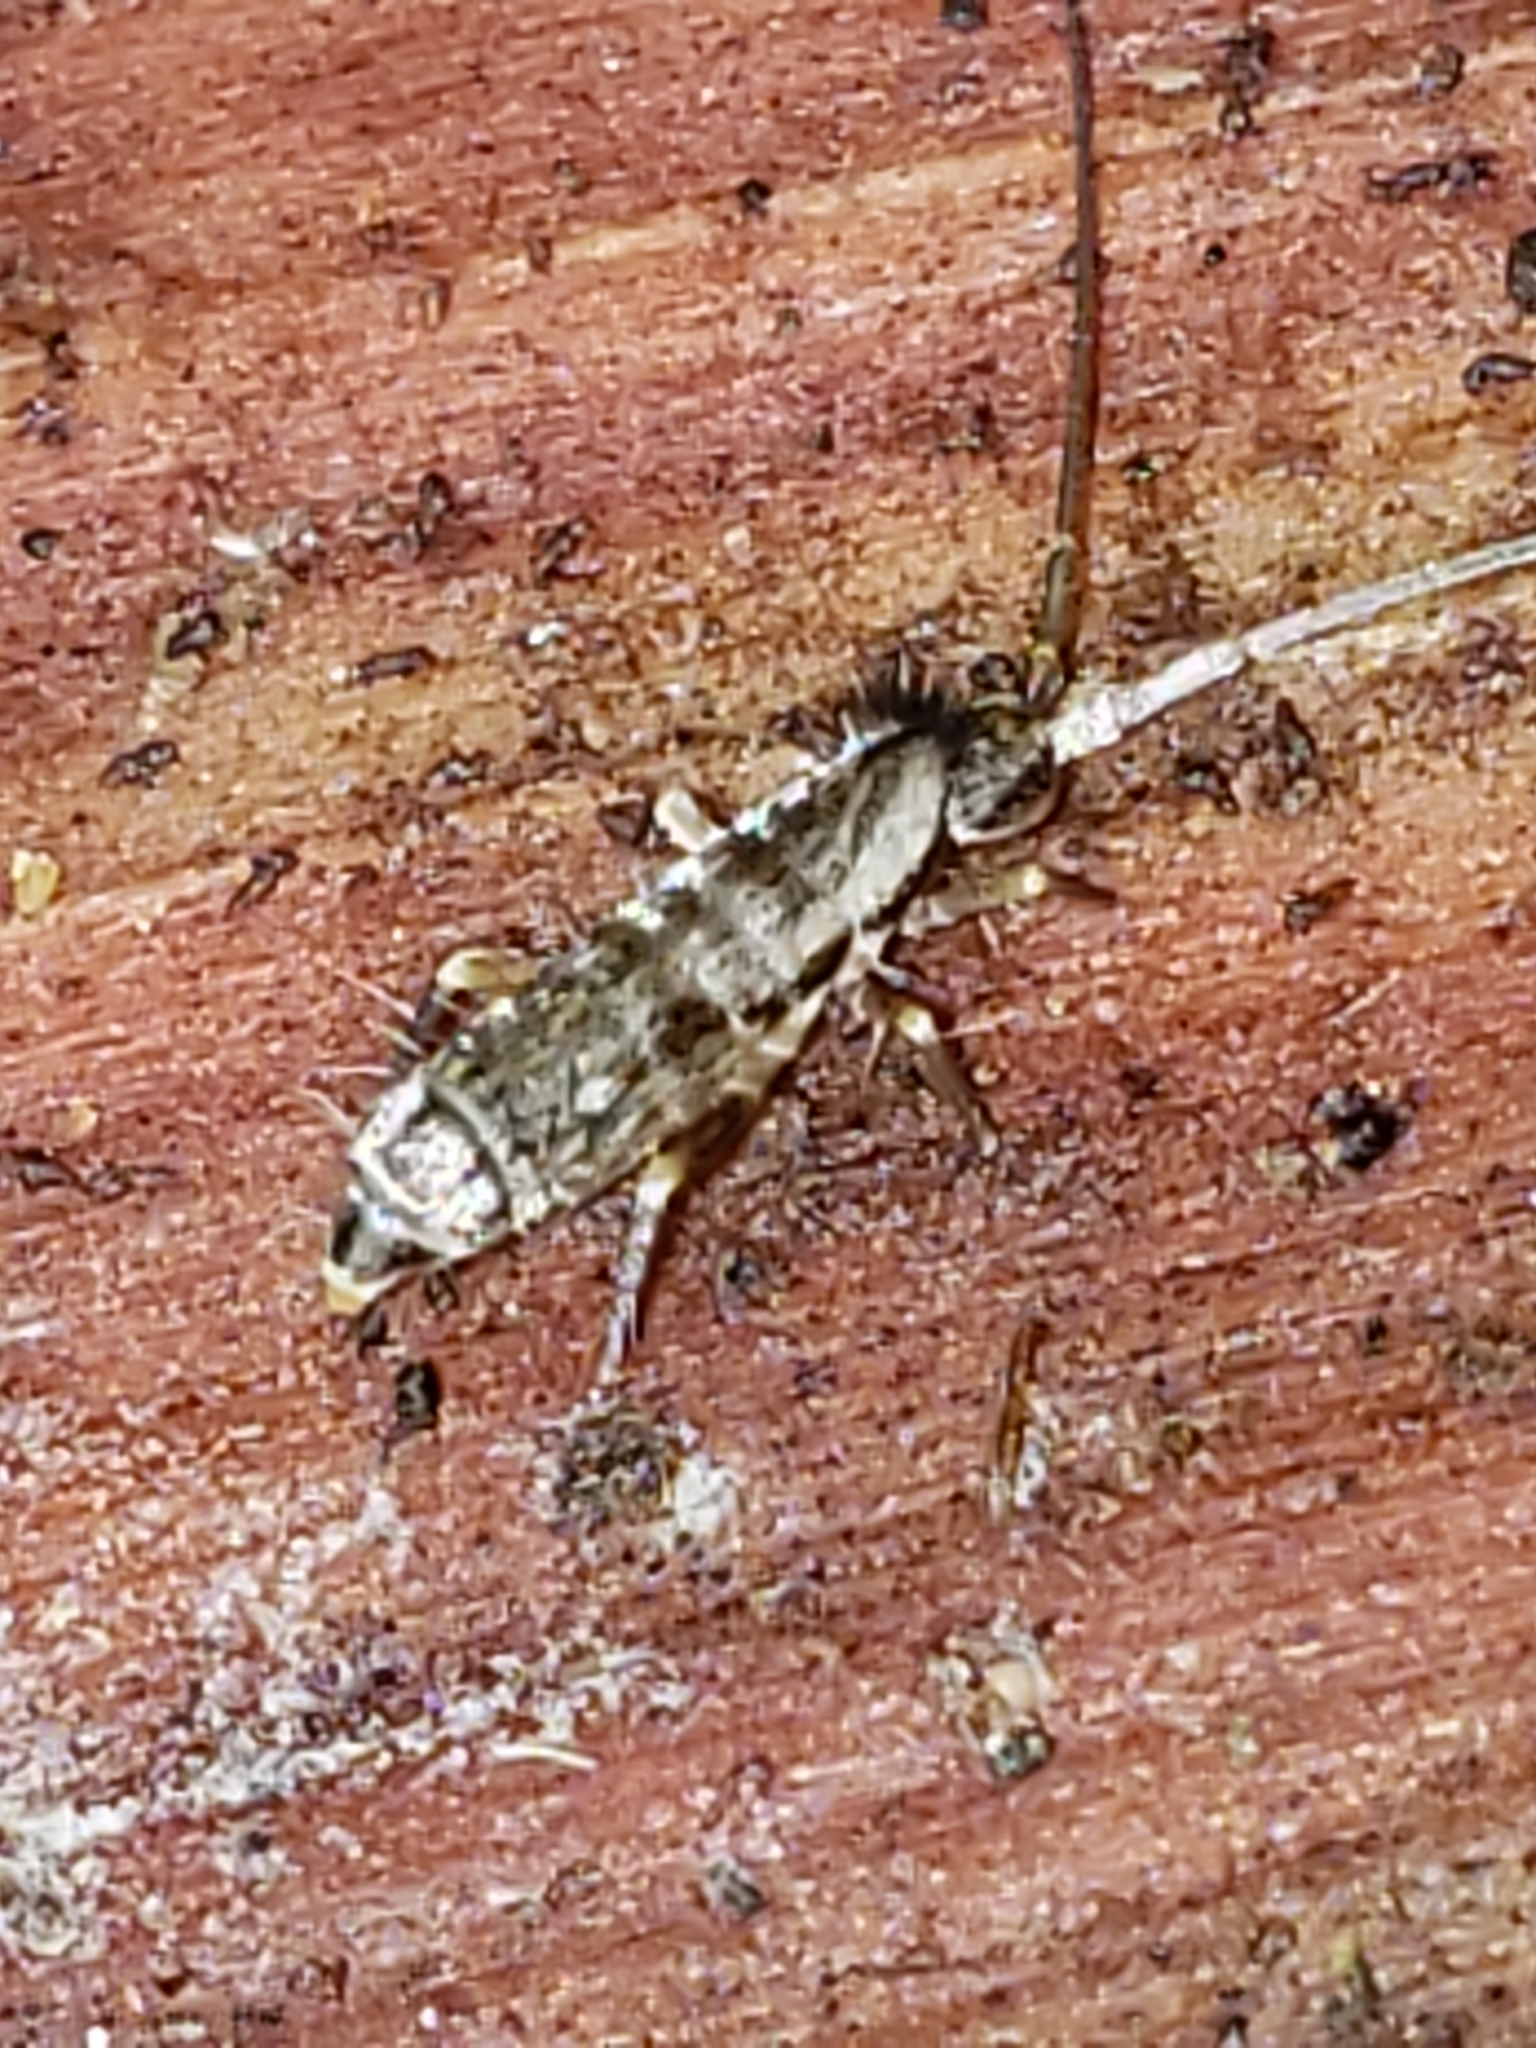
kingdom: Animalia
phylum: Arthropoda
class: Collembola
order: Entomobryomorpha
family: Tomoceridae
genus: Pogonognathellus
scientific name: Pogonognathellus elongatus
